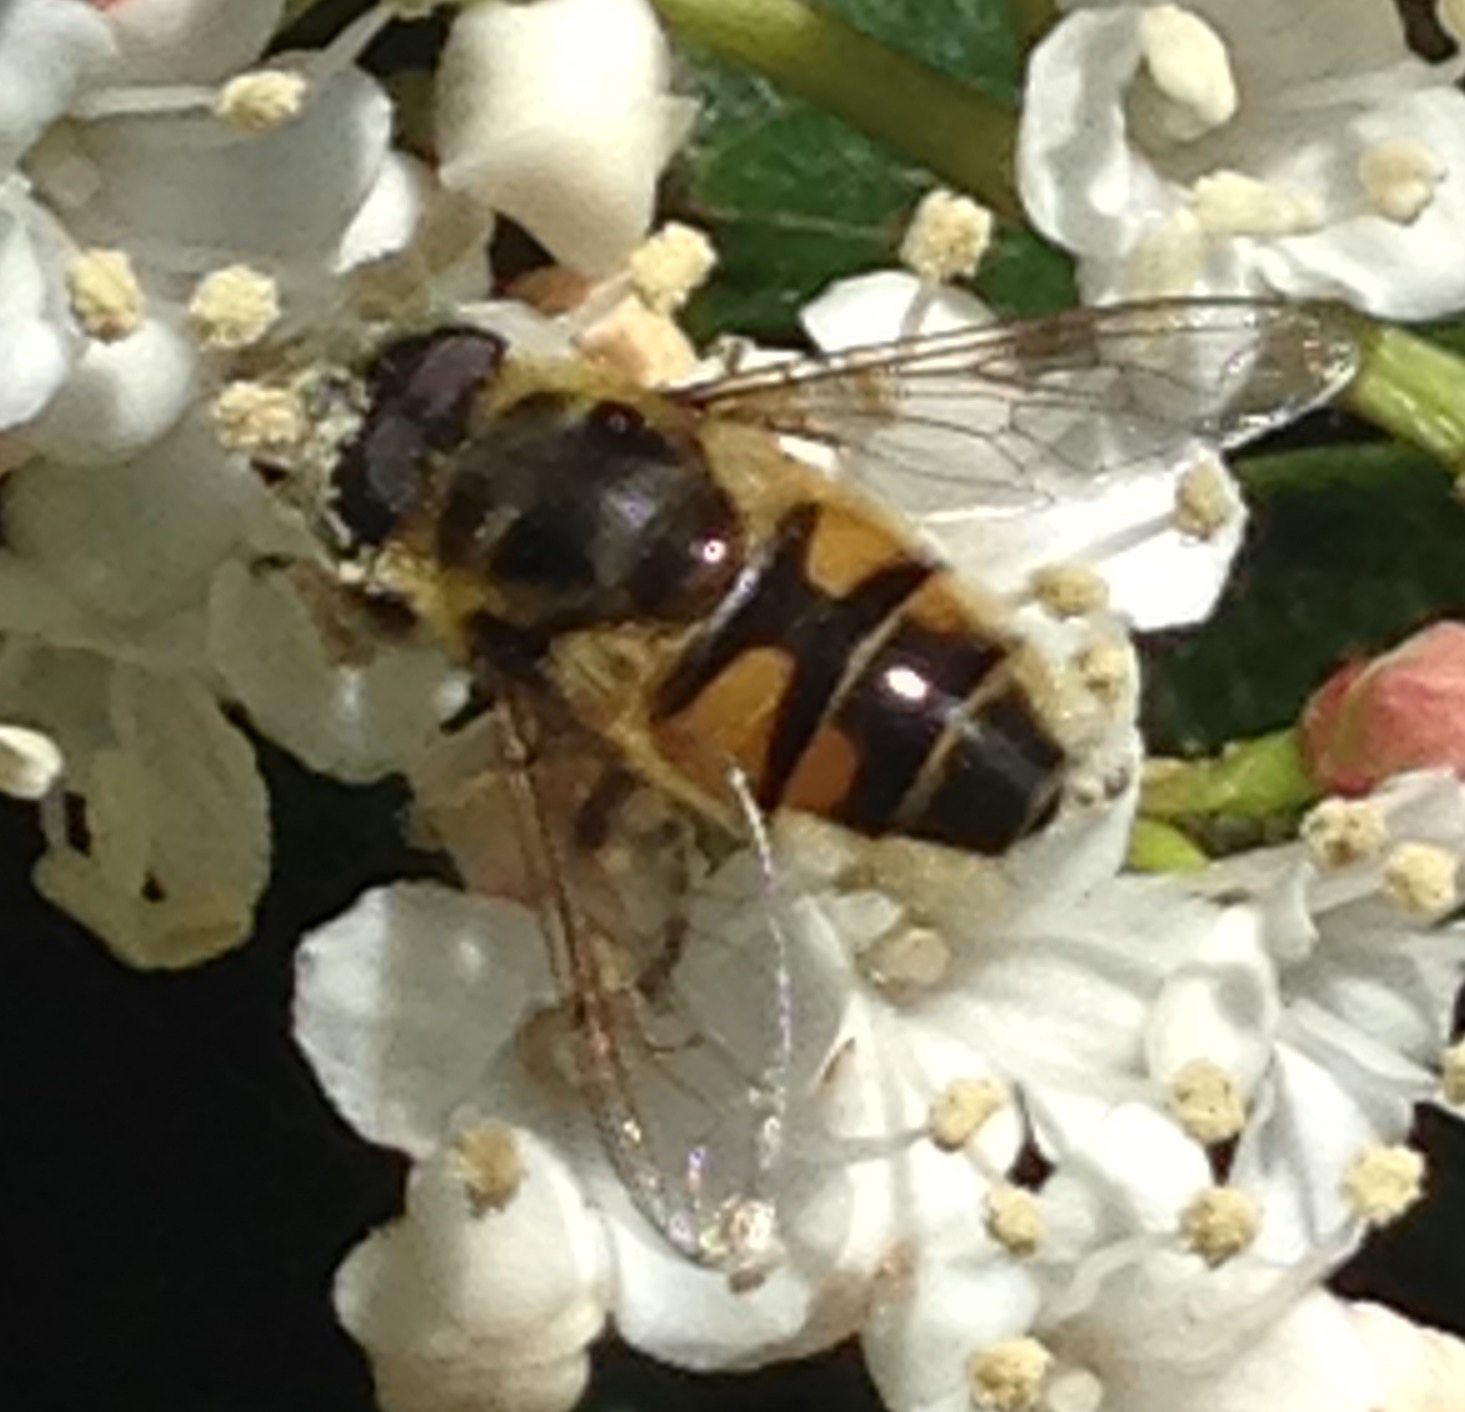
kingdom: Animalia
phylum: Arthropoda
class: Insecta
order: Diptera
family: Syrphidae
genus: Myathropa
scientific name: Myathropa florea
